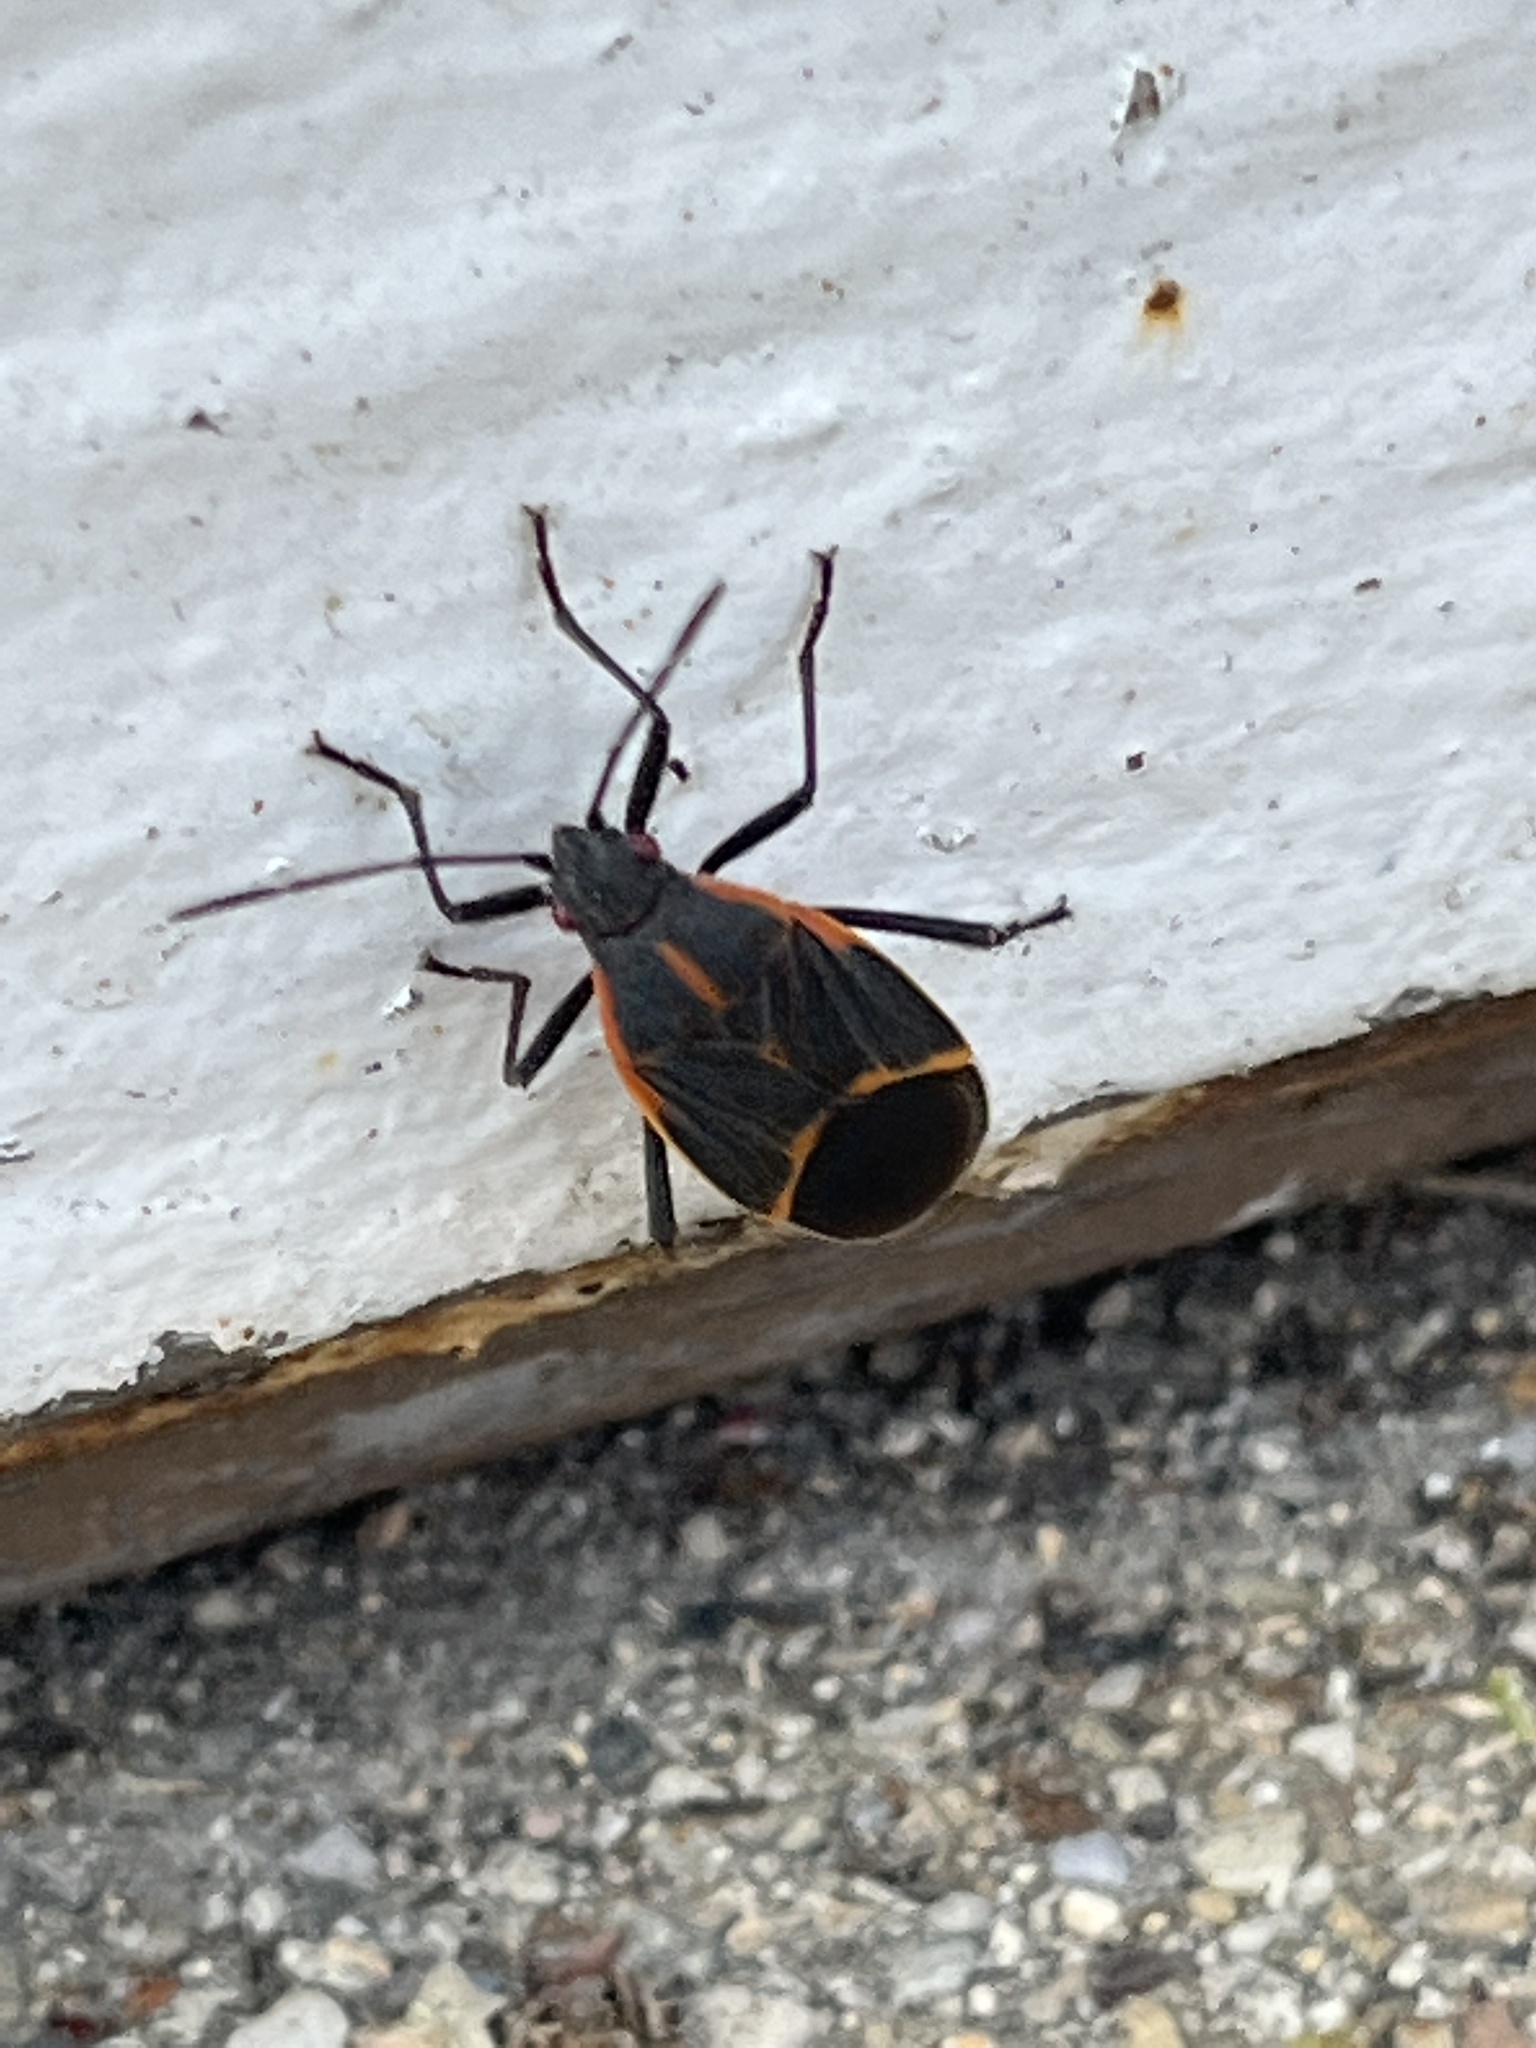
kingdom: Animalia
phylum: Arthropoda
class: Insecta
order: Hemiptera
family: Rhopalidae
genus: Boisea
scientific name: Boisea trivittata
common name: Boxelder bug
